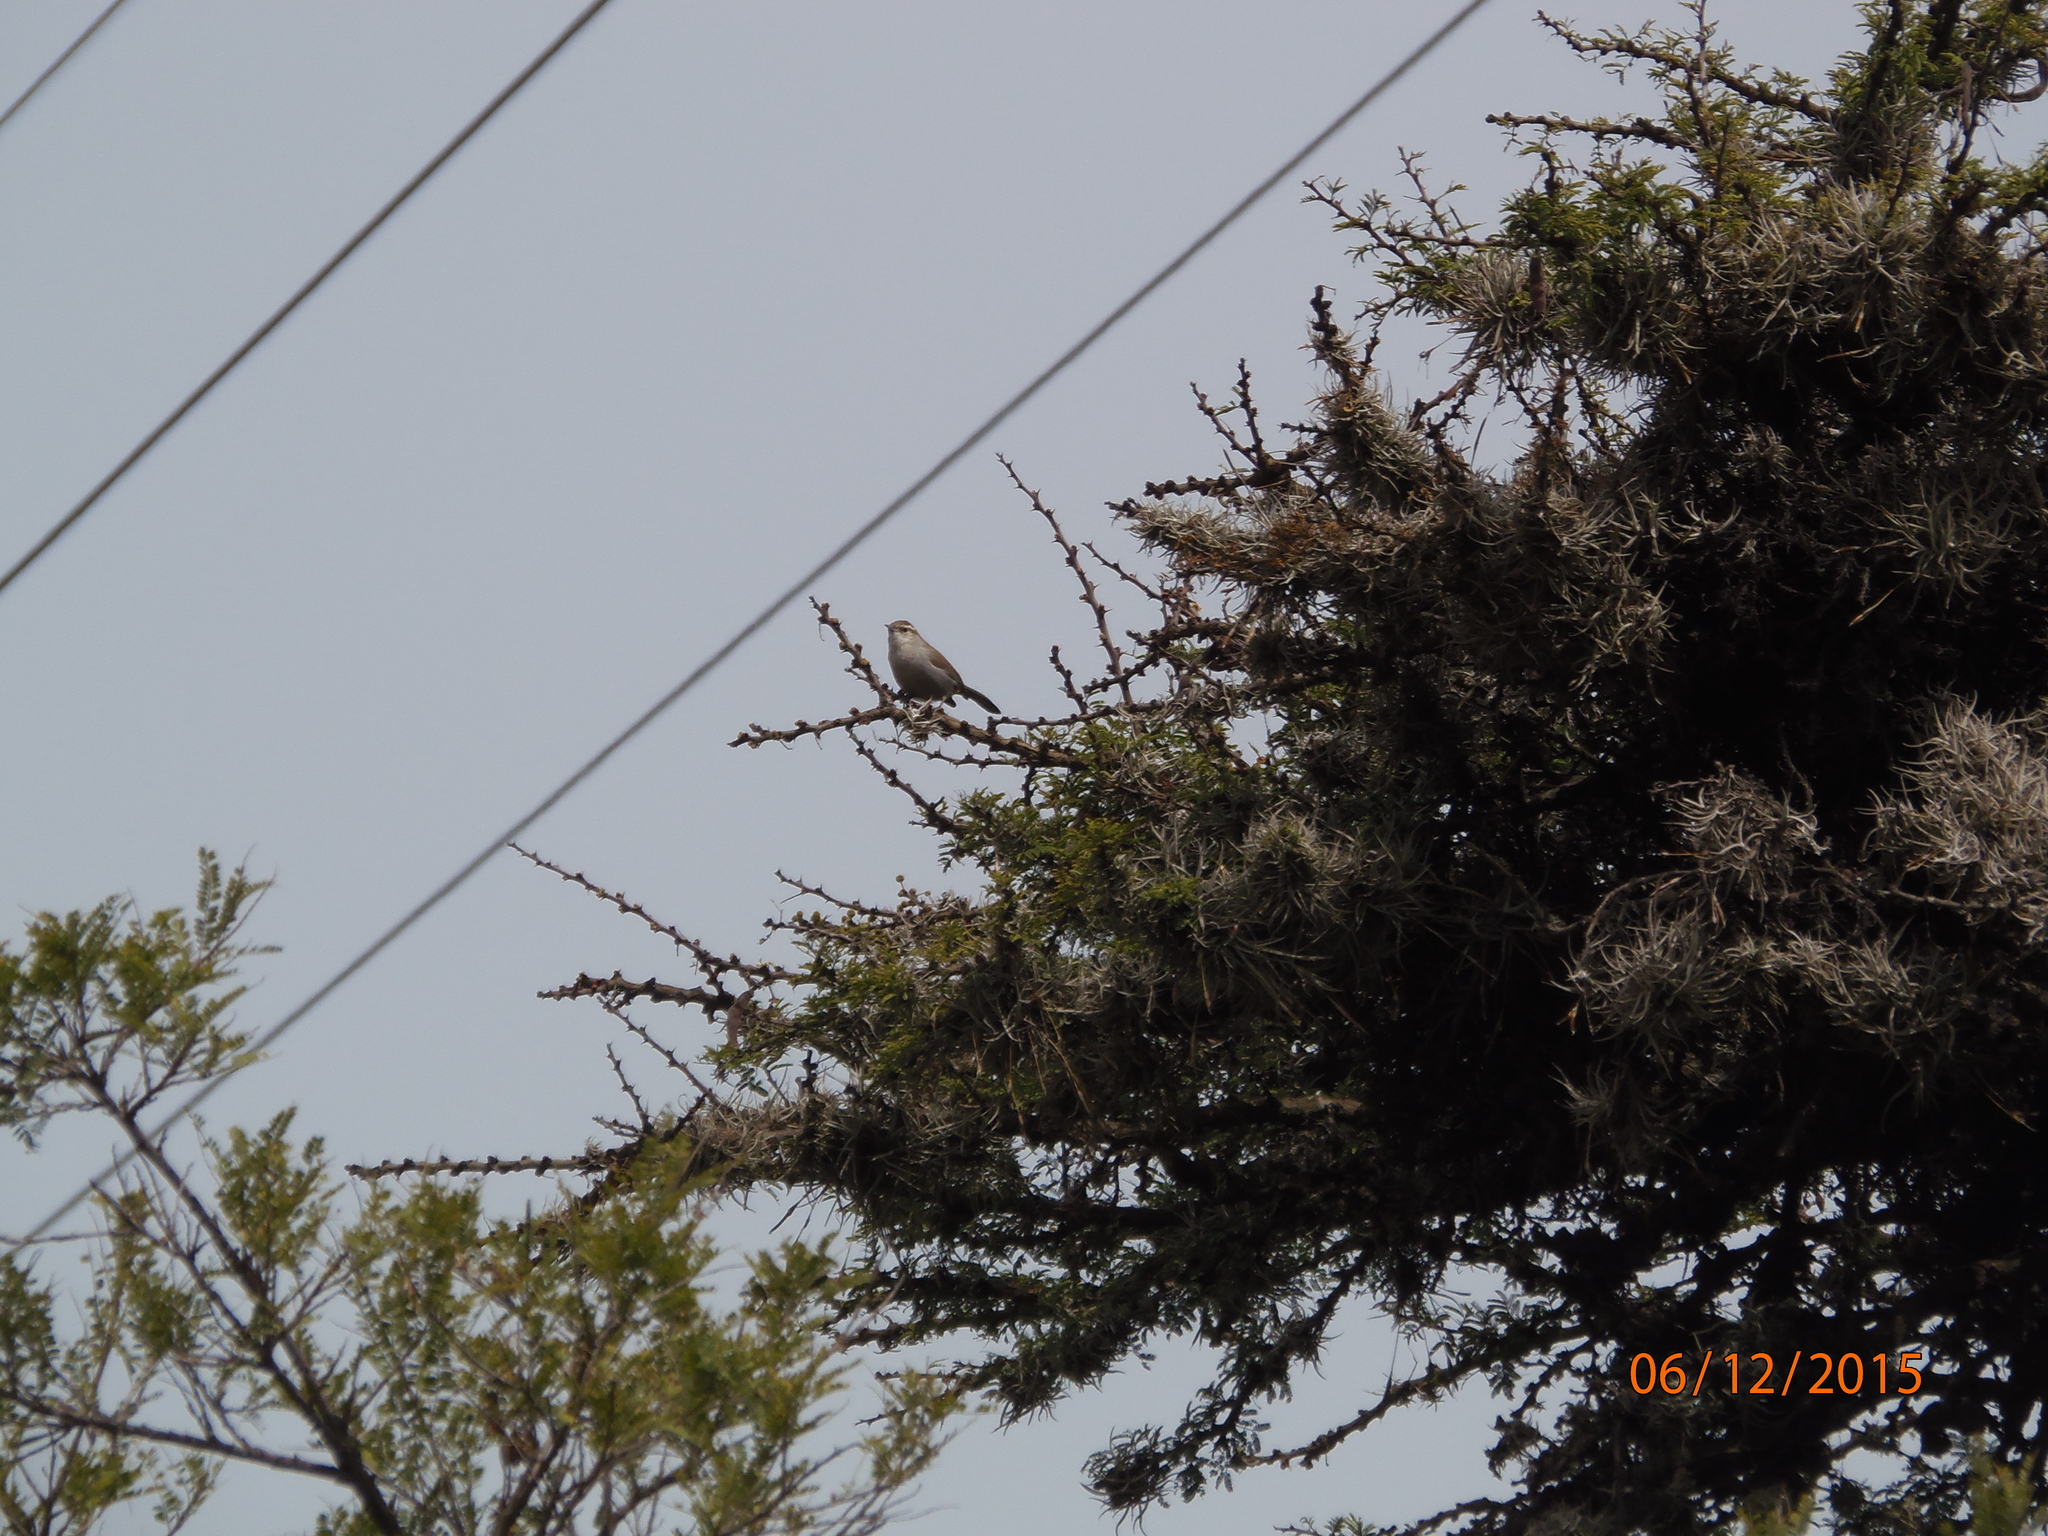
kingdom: Animalia
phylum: Chordata
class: Aves
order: Passeriformes
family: Troglodytidae
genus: Thryomanes
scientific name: Thryomanes bewickii
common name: Bewick's wren
